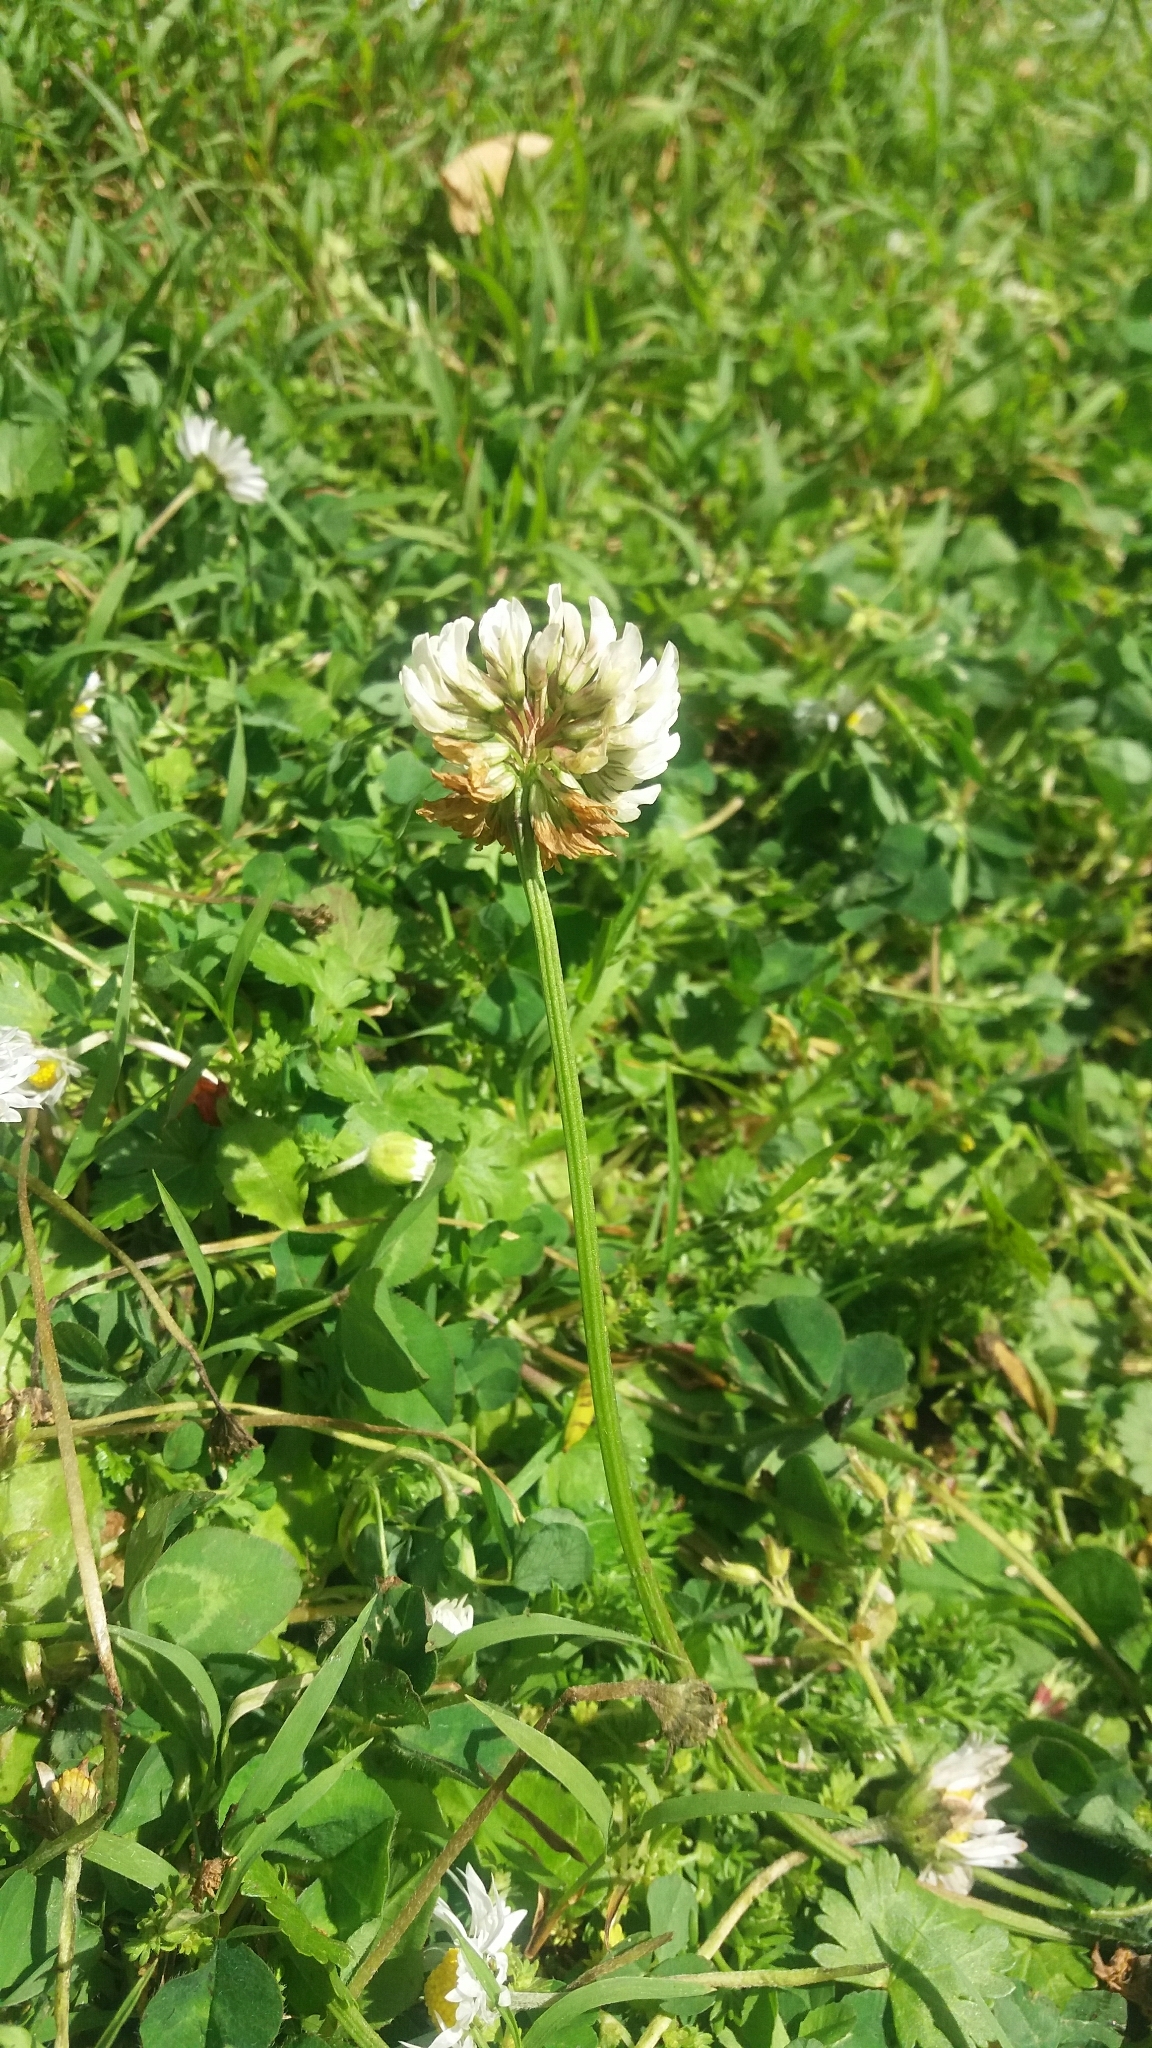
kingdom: Plantae
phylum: Tracheophyta
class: Magnoliopsida
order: Fabales
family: Fabaceae
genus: Trifolium
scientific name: Trifolium repens
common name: White clover
